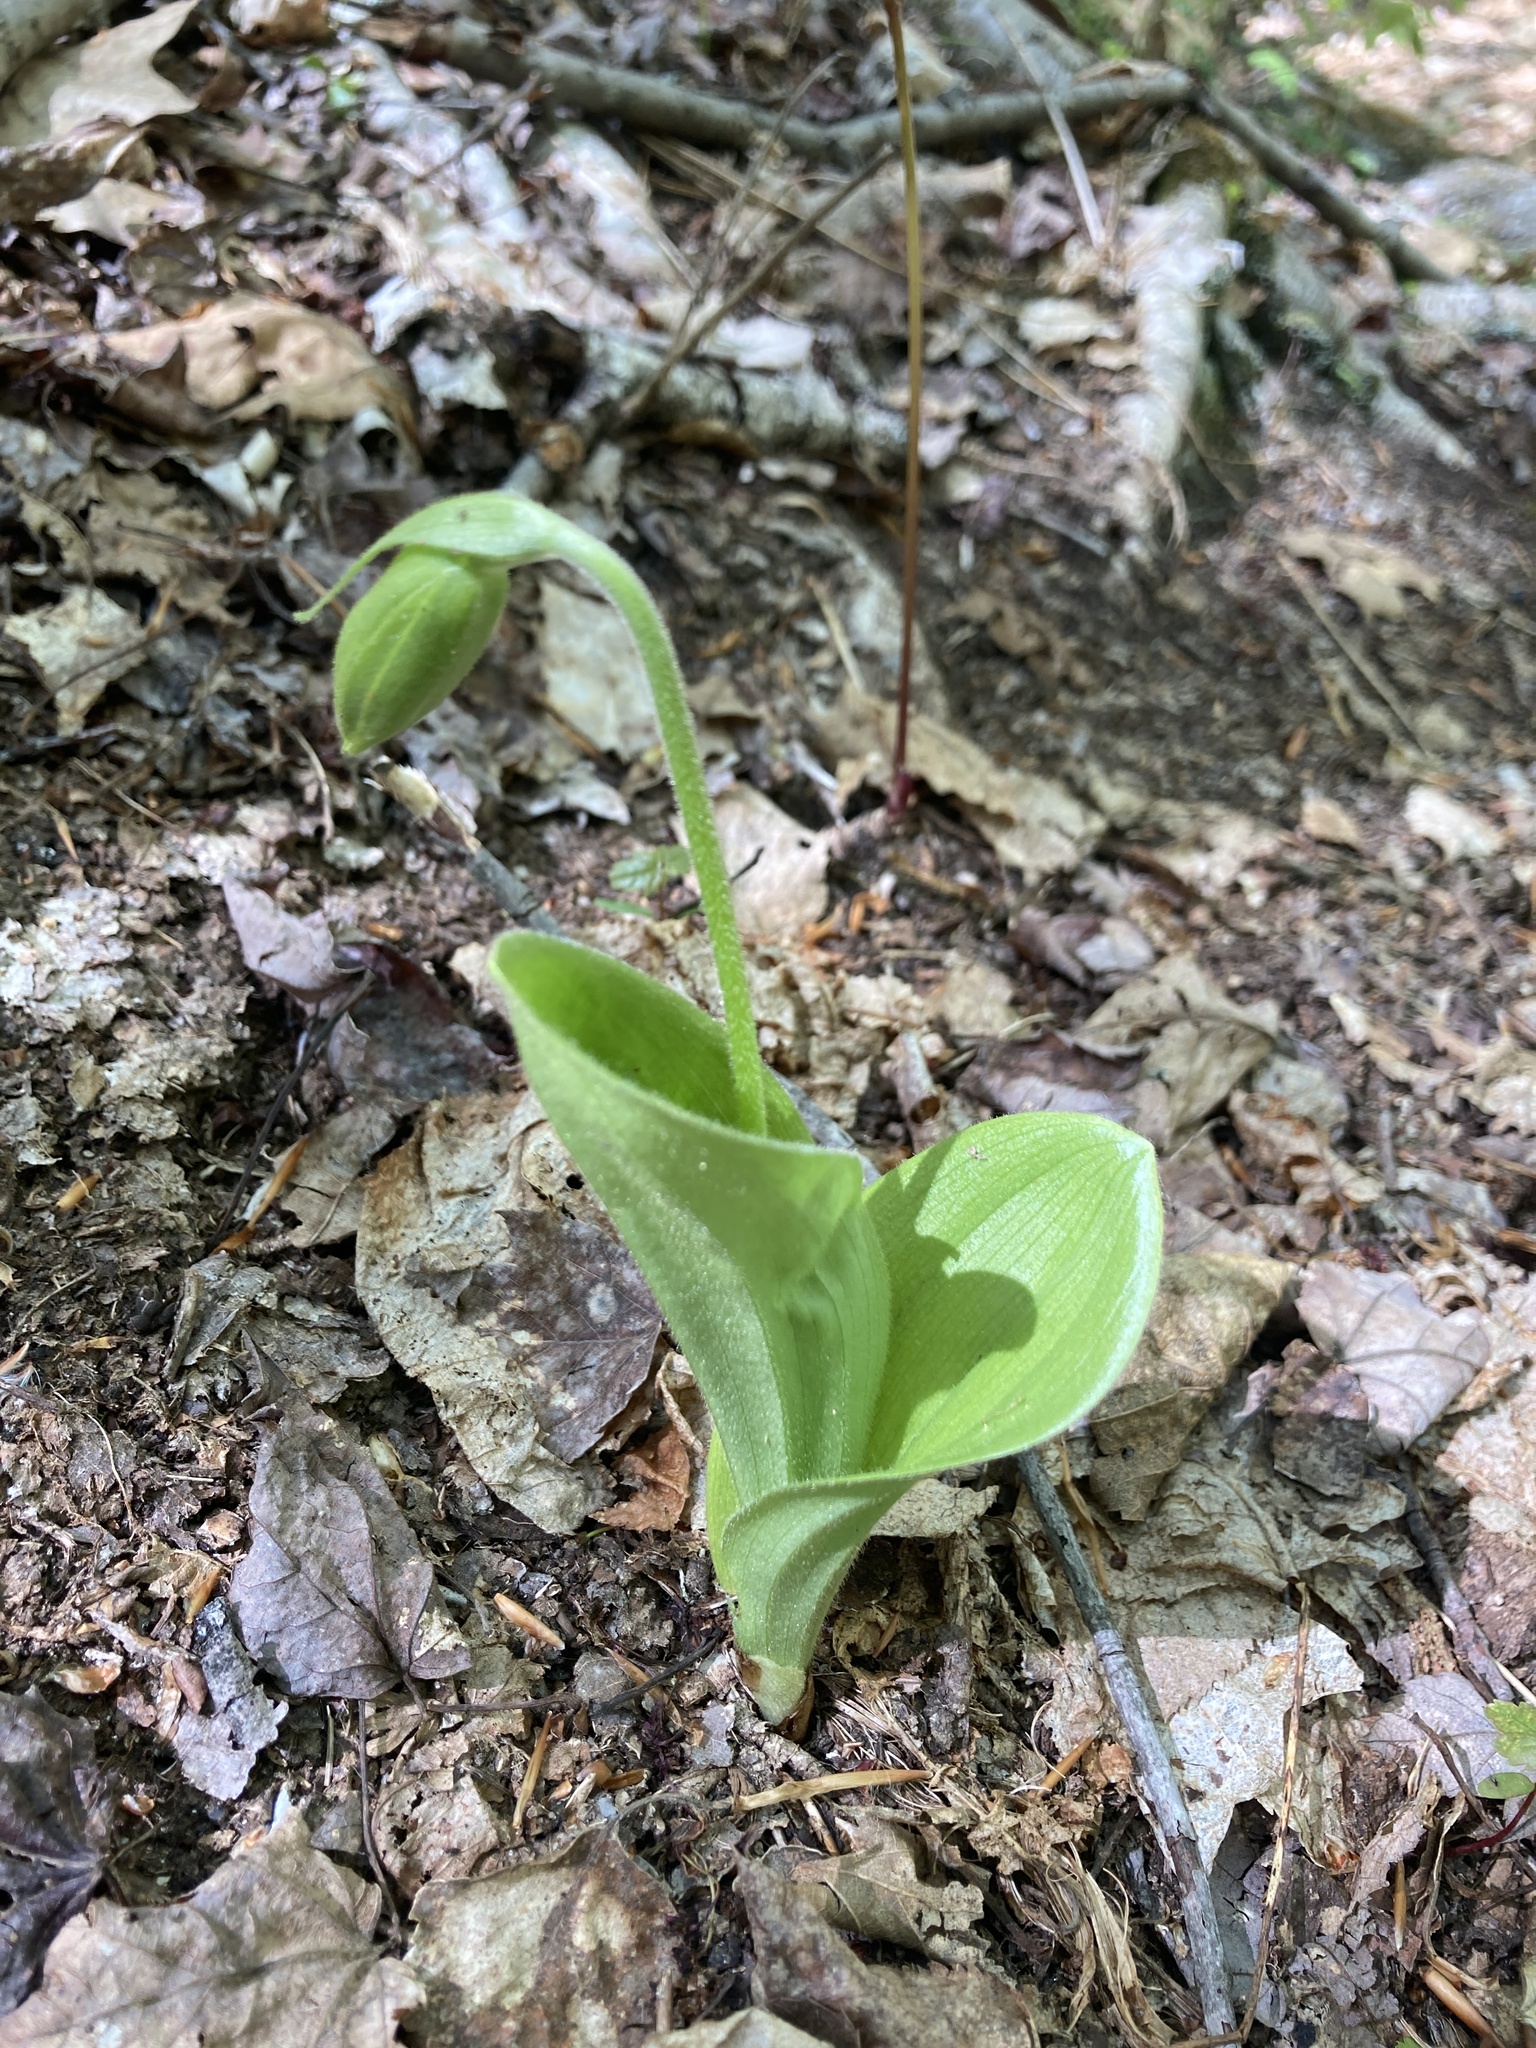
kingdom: Plantae
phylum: Tracheophyta
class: Liliopsida
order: Asparagales
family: Orchidaceae
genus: Cypripedium
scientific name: Cypripedium acaule
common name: Pink lady's-slipper
